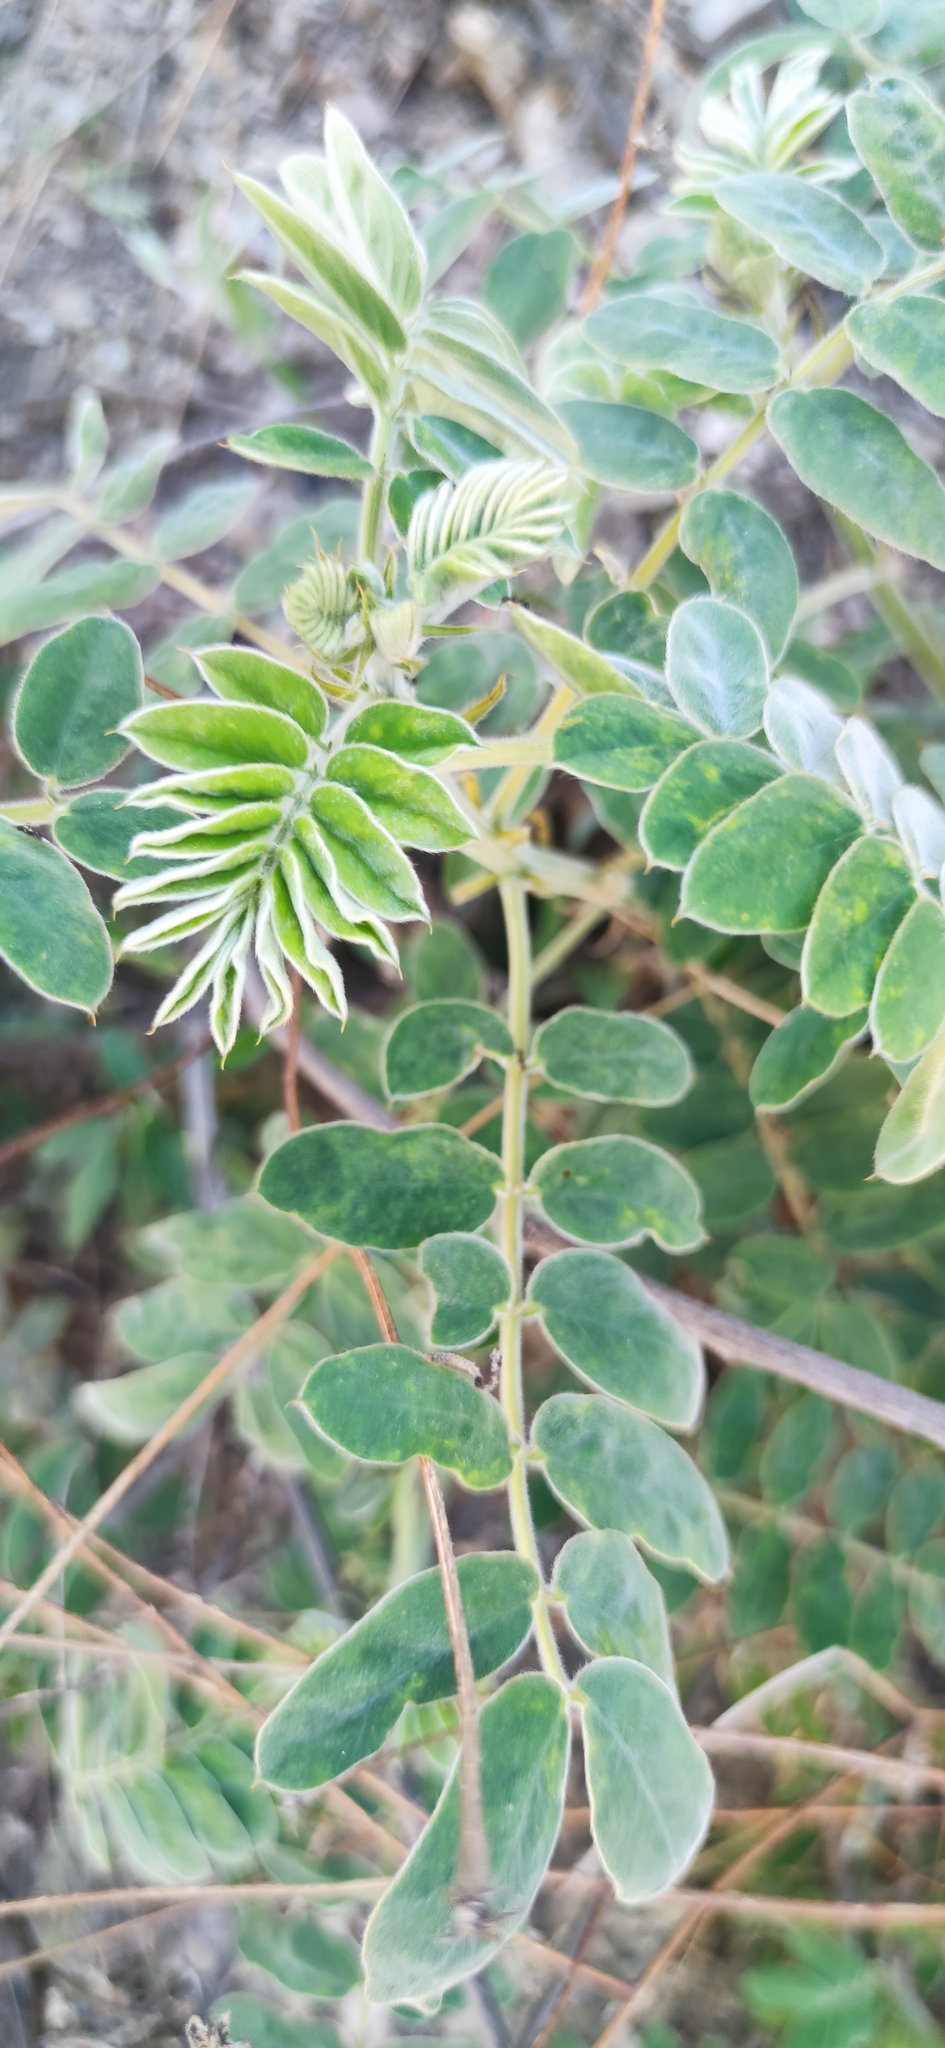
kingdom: Plantae
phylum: Tracheophyta
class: Magnoliopsida
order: Asterales
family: Asteraceae
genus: Wedelia
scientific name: Wedelia acapulcensis
